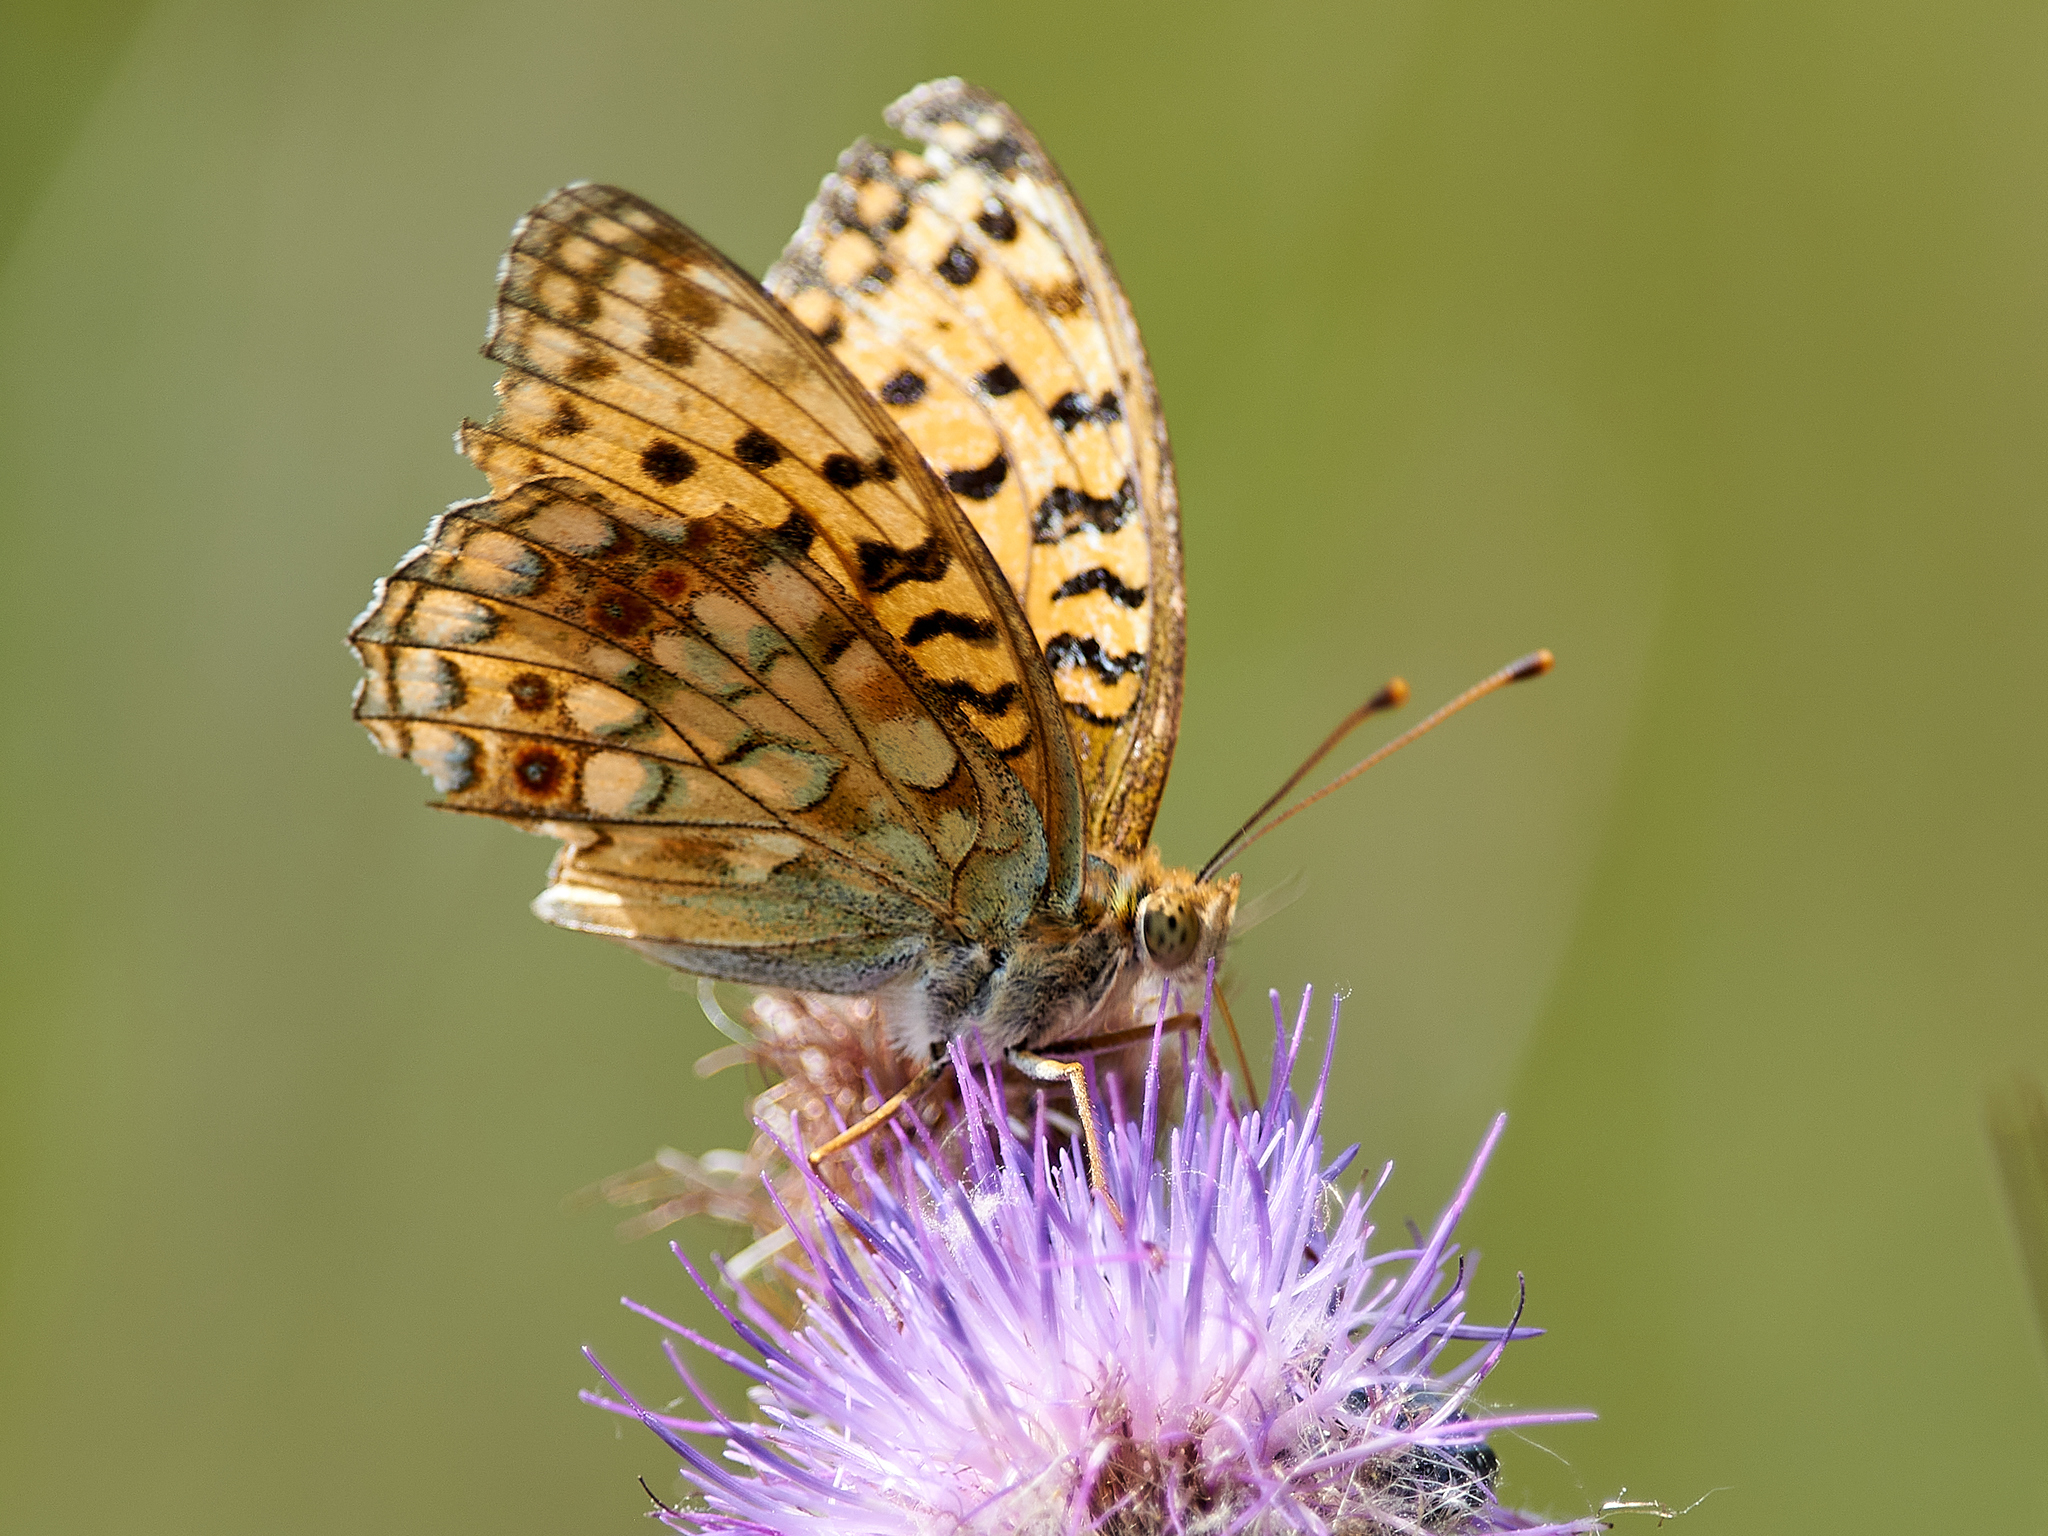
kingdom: Animalia
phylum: Arthropoda
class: Insecta
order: Lepidoptera
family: Nymphalidae
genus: Fabriciana
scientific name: Fabriciana adippe
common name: High brown fritillary
